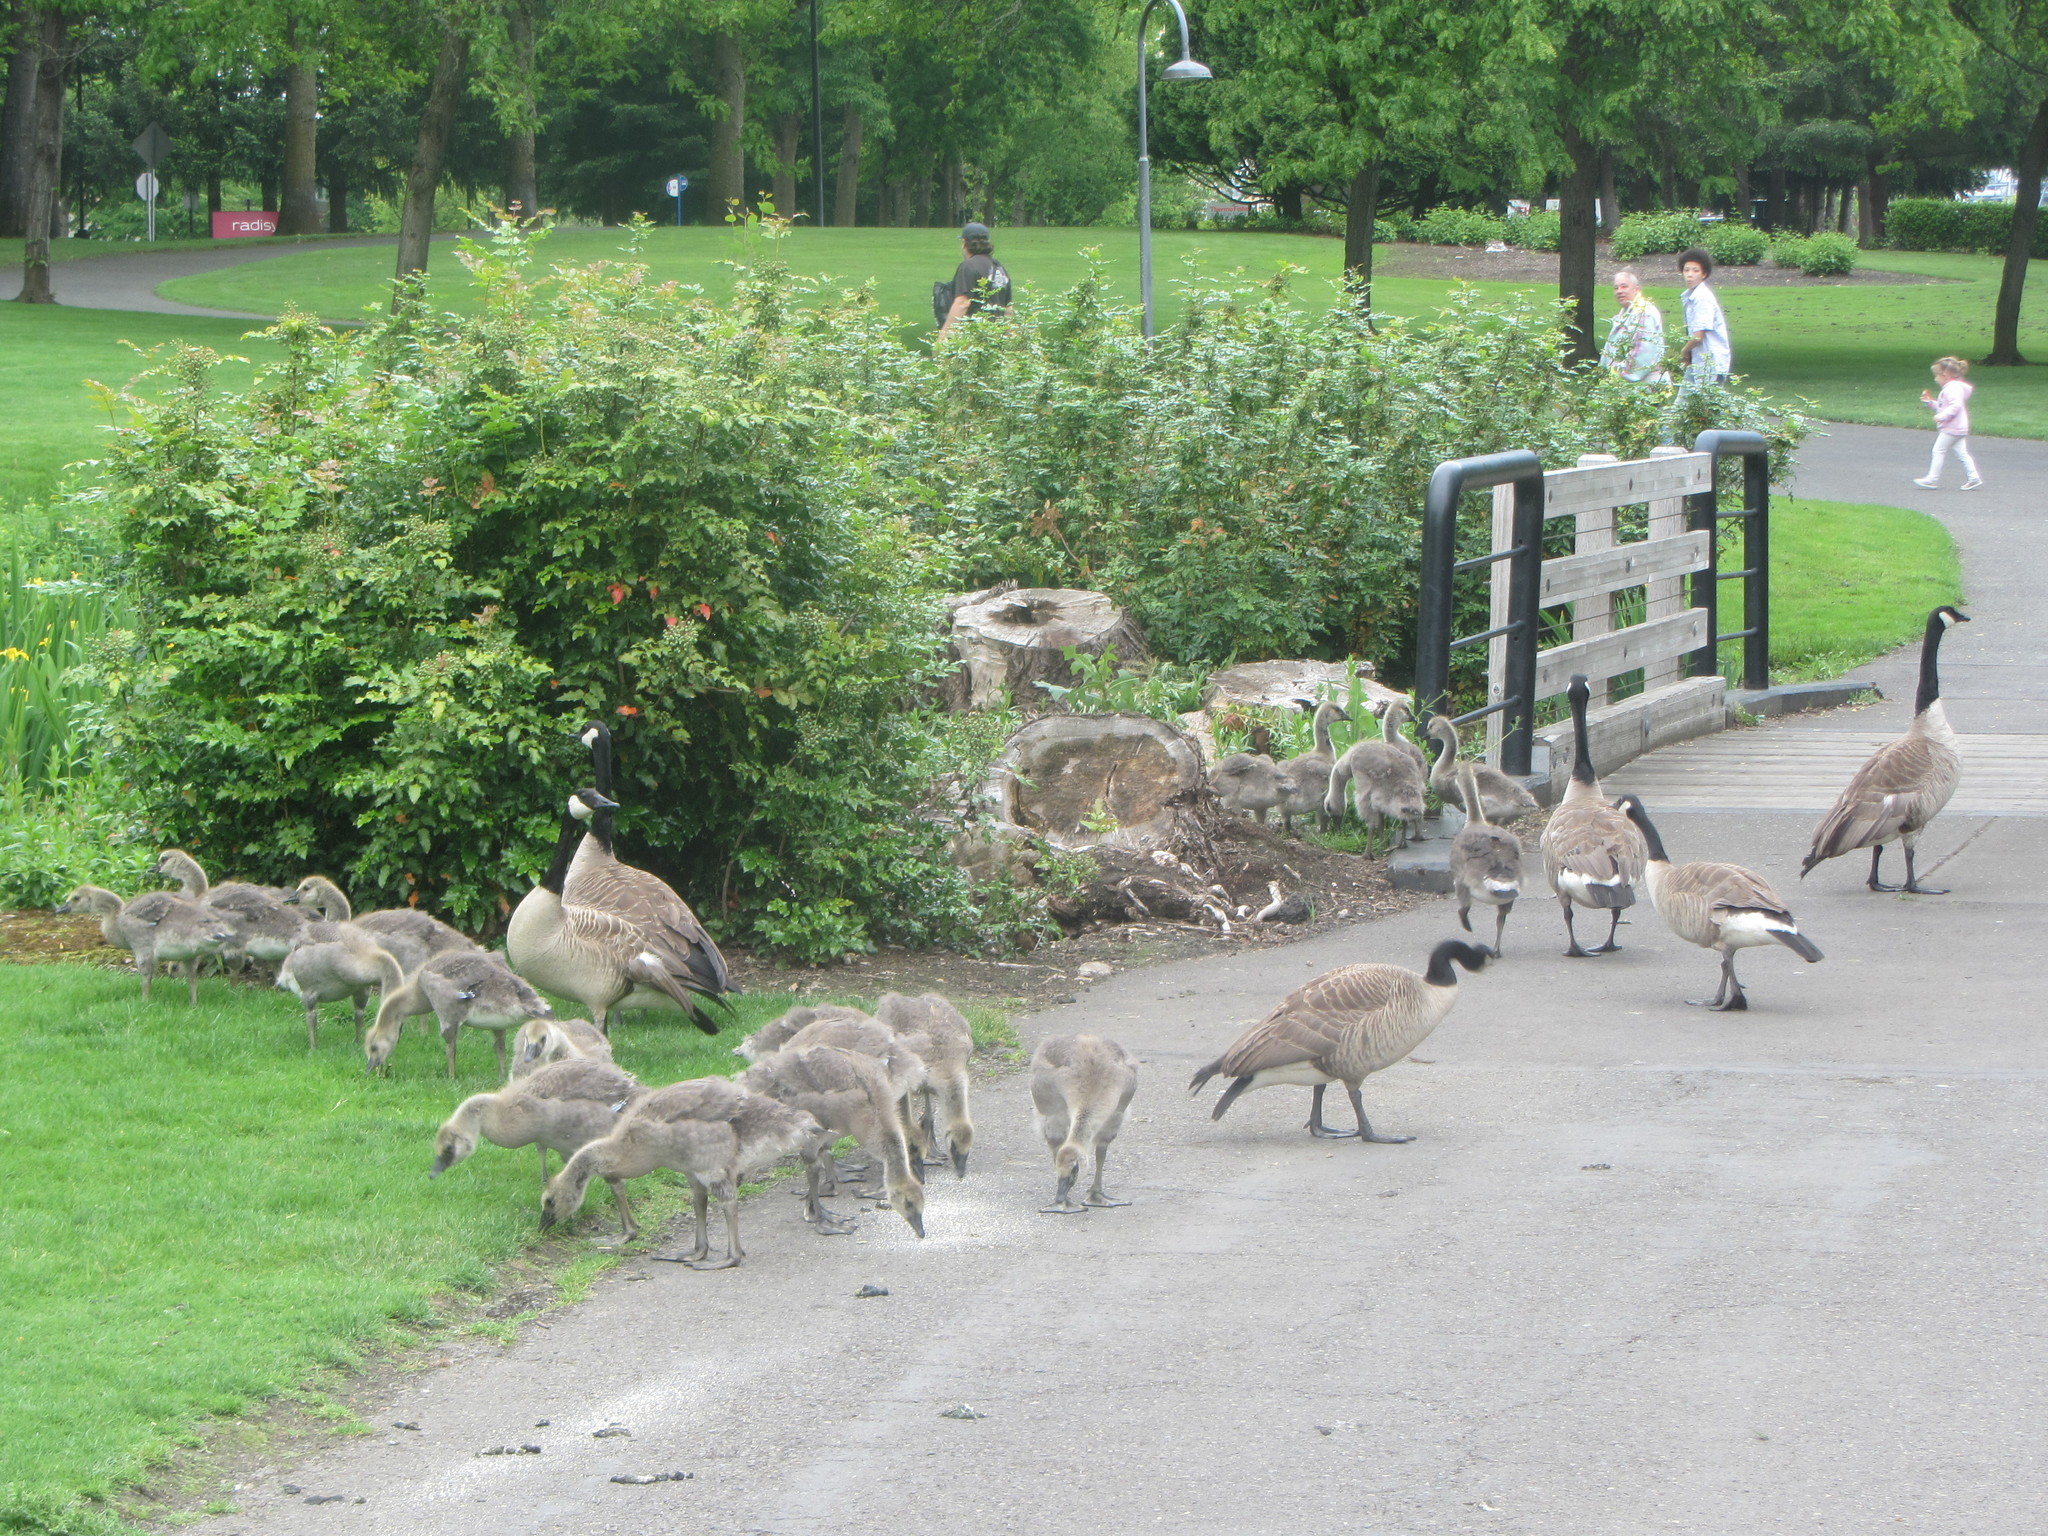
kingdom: Animalia
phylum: Chordata
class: Aves
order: Anseriformes
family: Anatidae
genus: Branta
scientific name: Branta canadensis
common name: Canada goose
